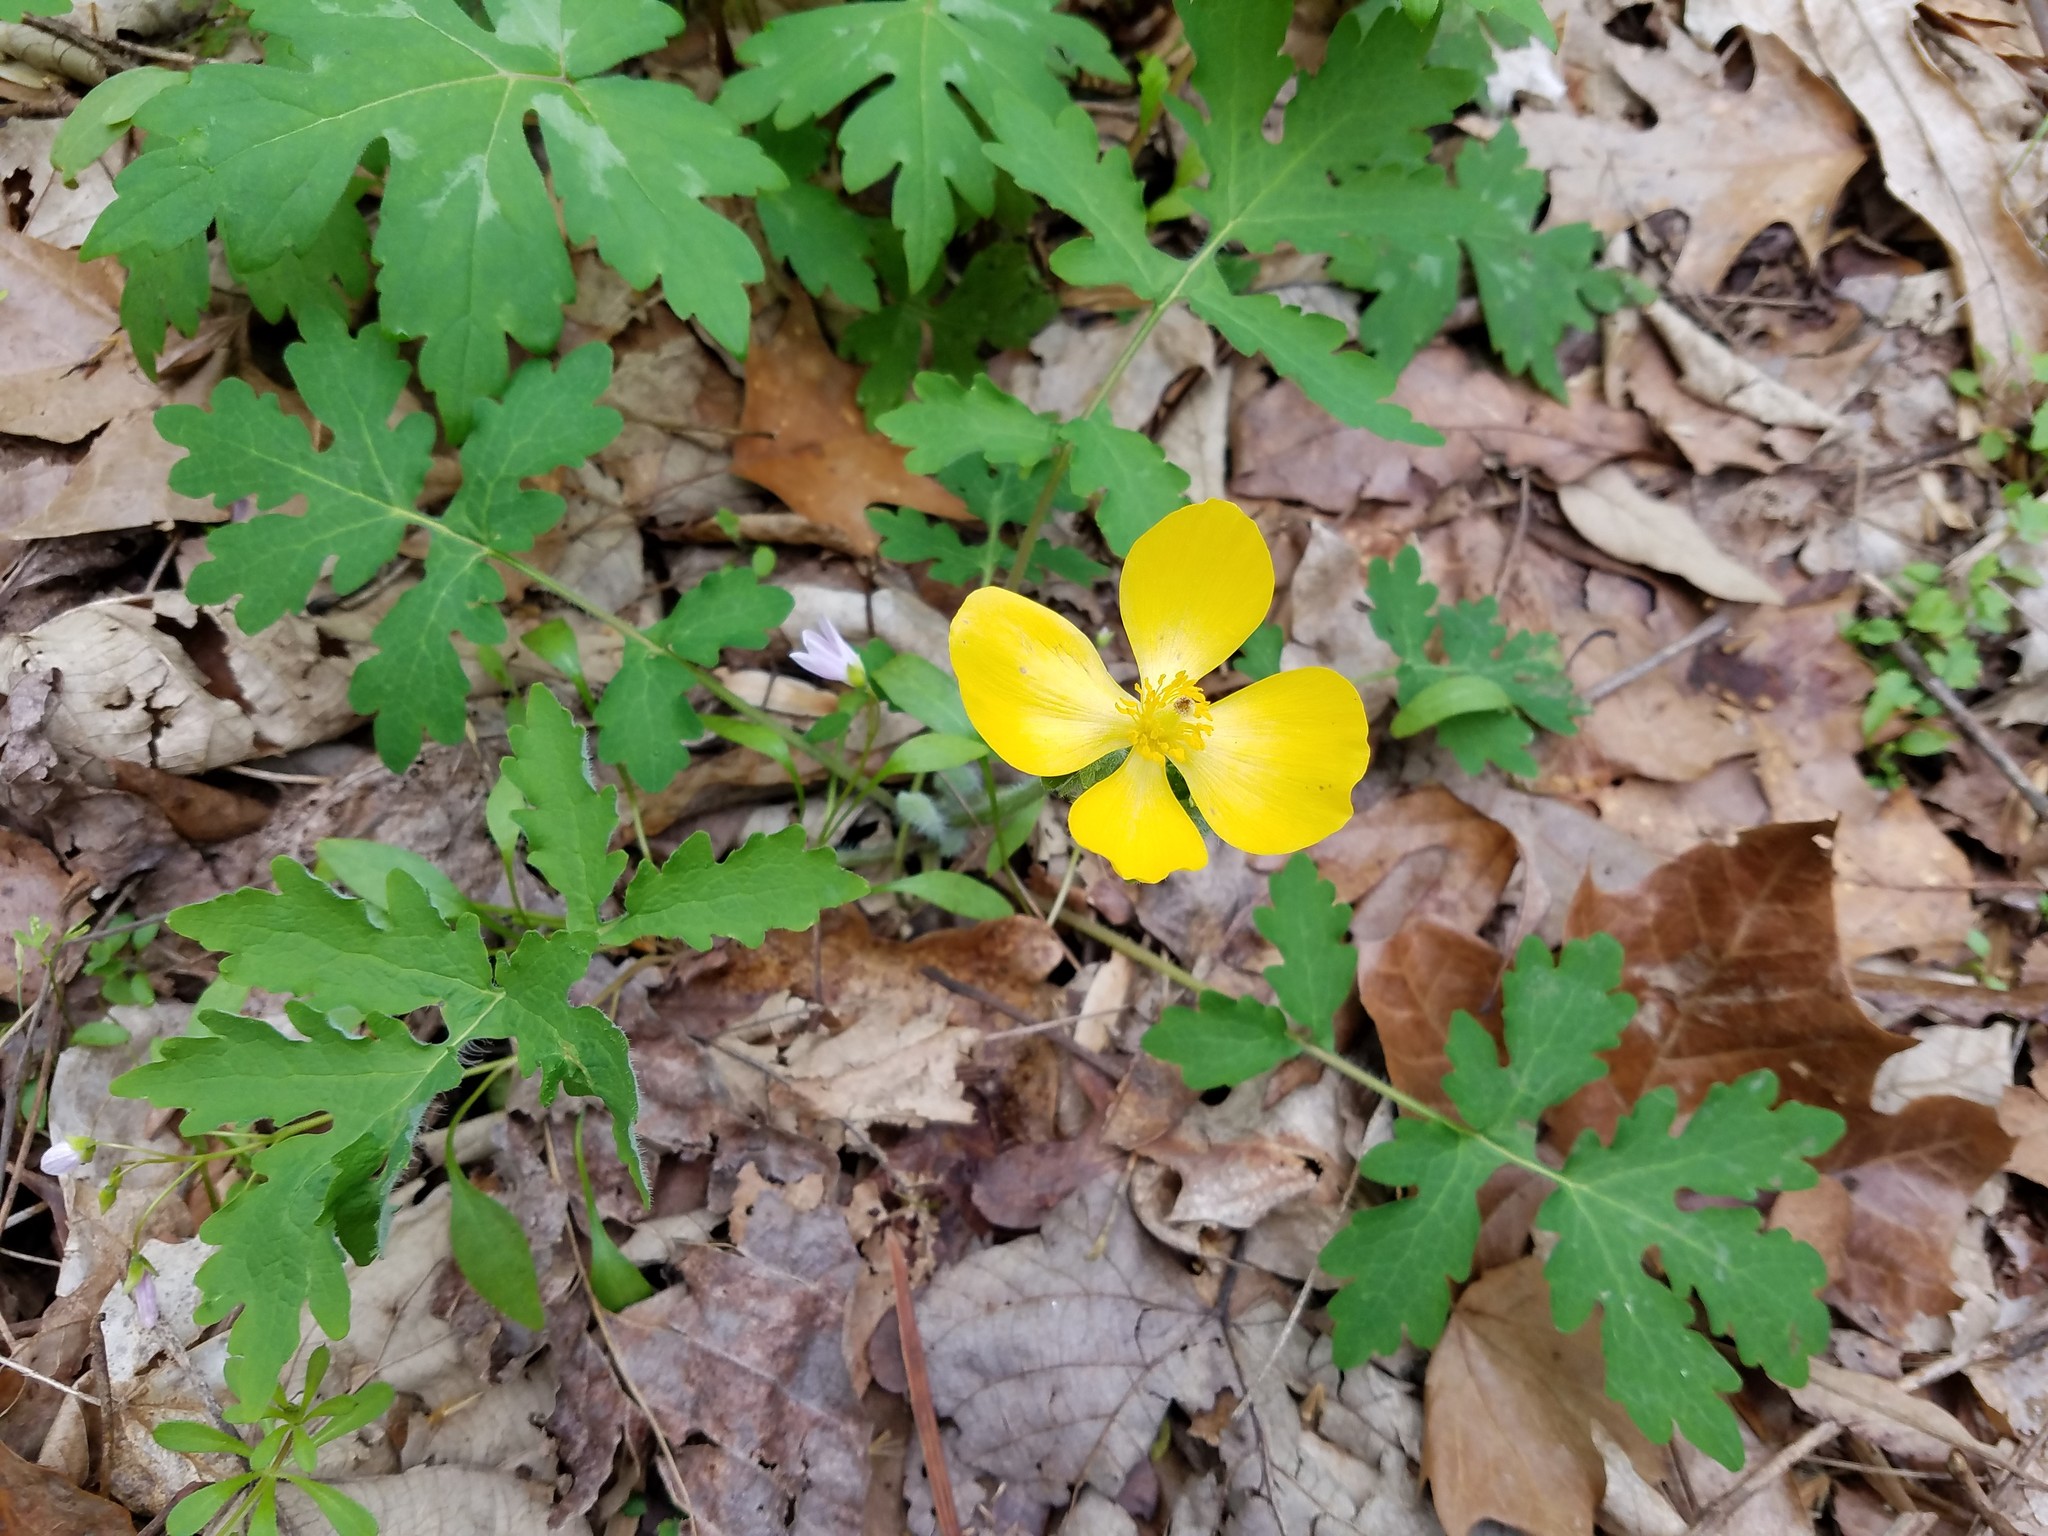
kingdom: Plantae
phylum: Tracheophyta
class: Magnoliopsida
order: Ranunculales
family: Papaveraceae
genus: Stylophorum
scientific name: Stylophorum diphyllum
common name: Celandine poppy
